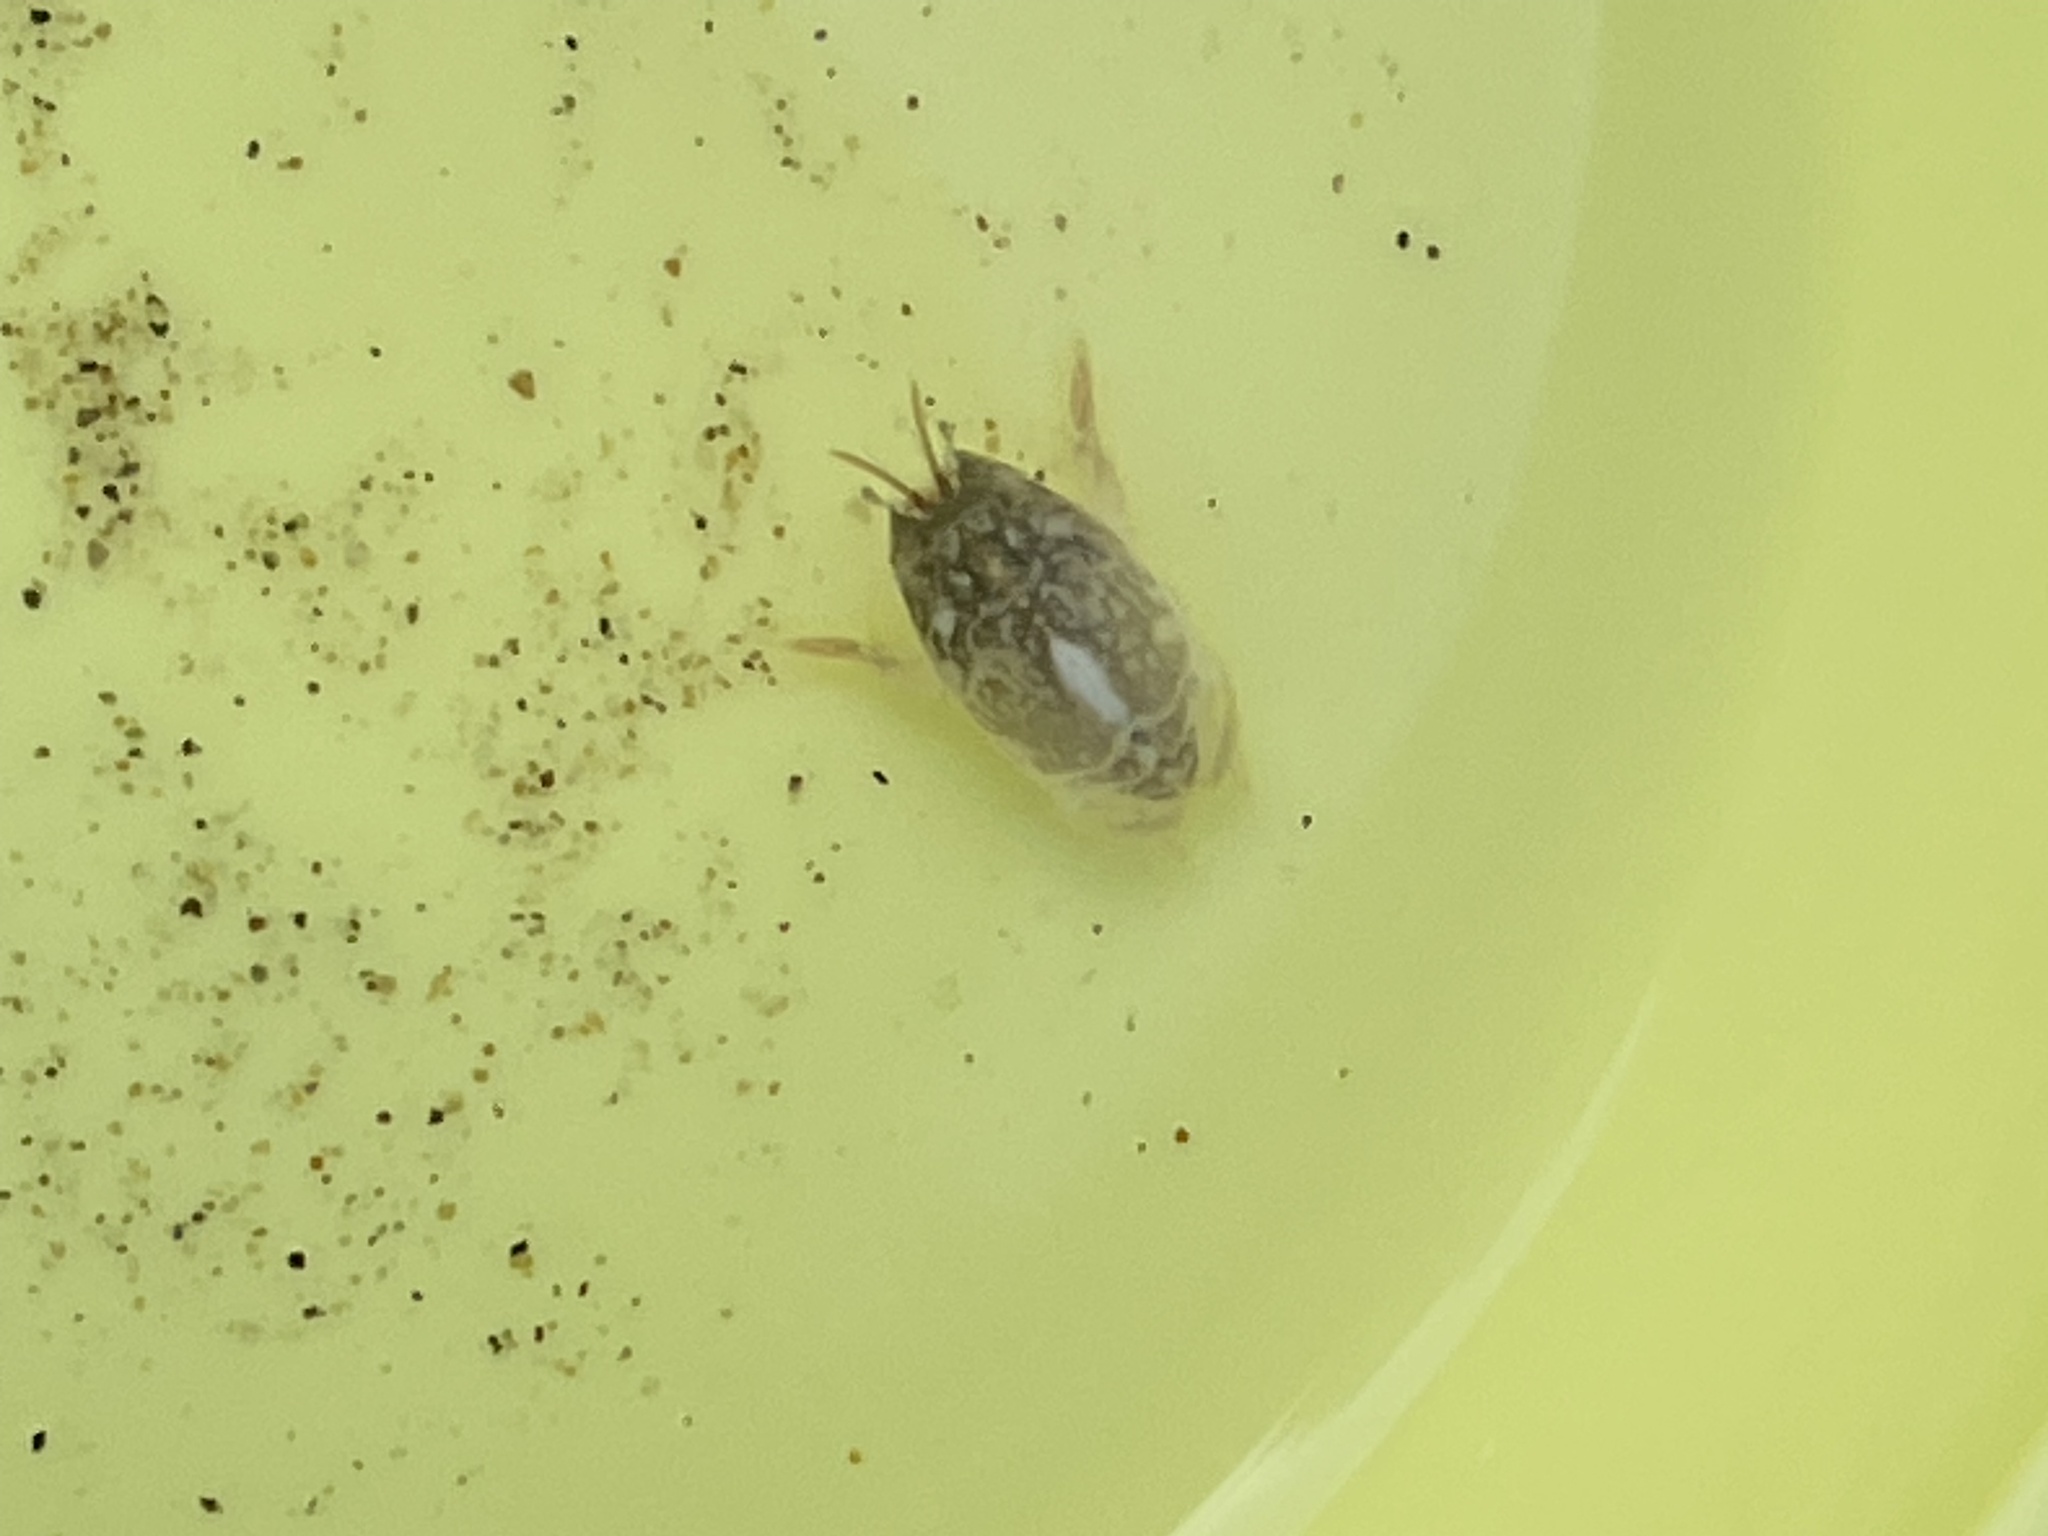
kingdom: Animalia
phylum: Arthropoda
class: Malacostraca
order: Decapoda
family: Hippidae
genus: Emerita
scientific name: Emerita analoga
